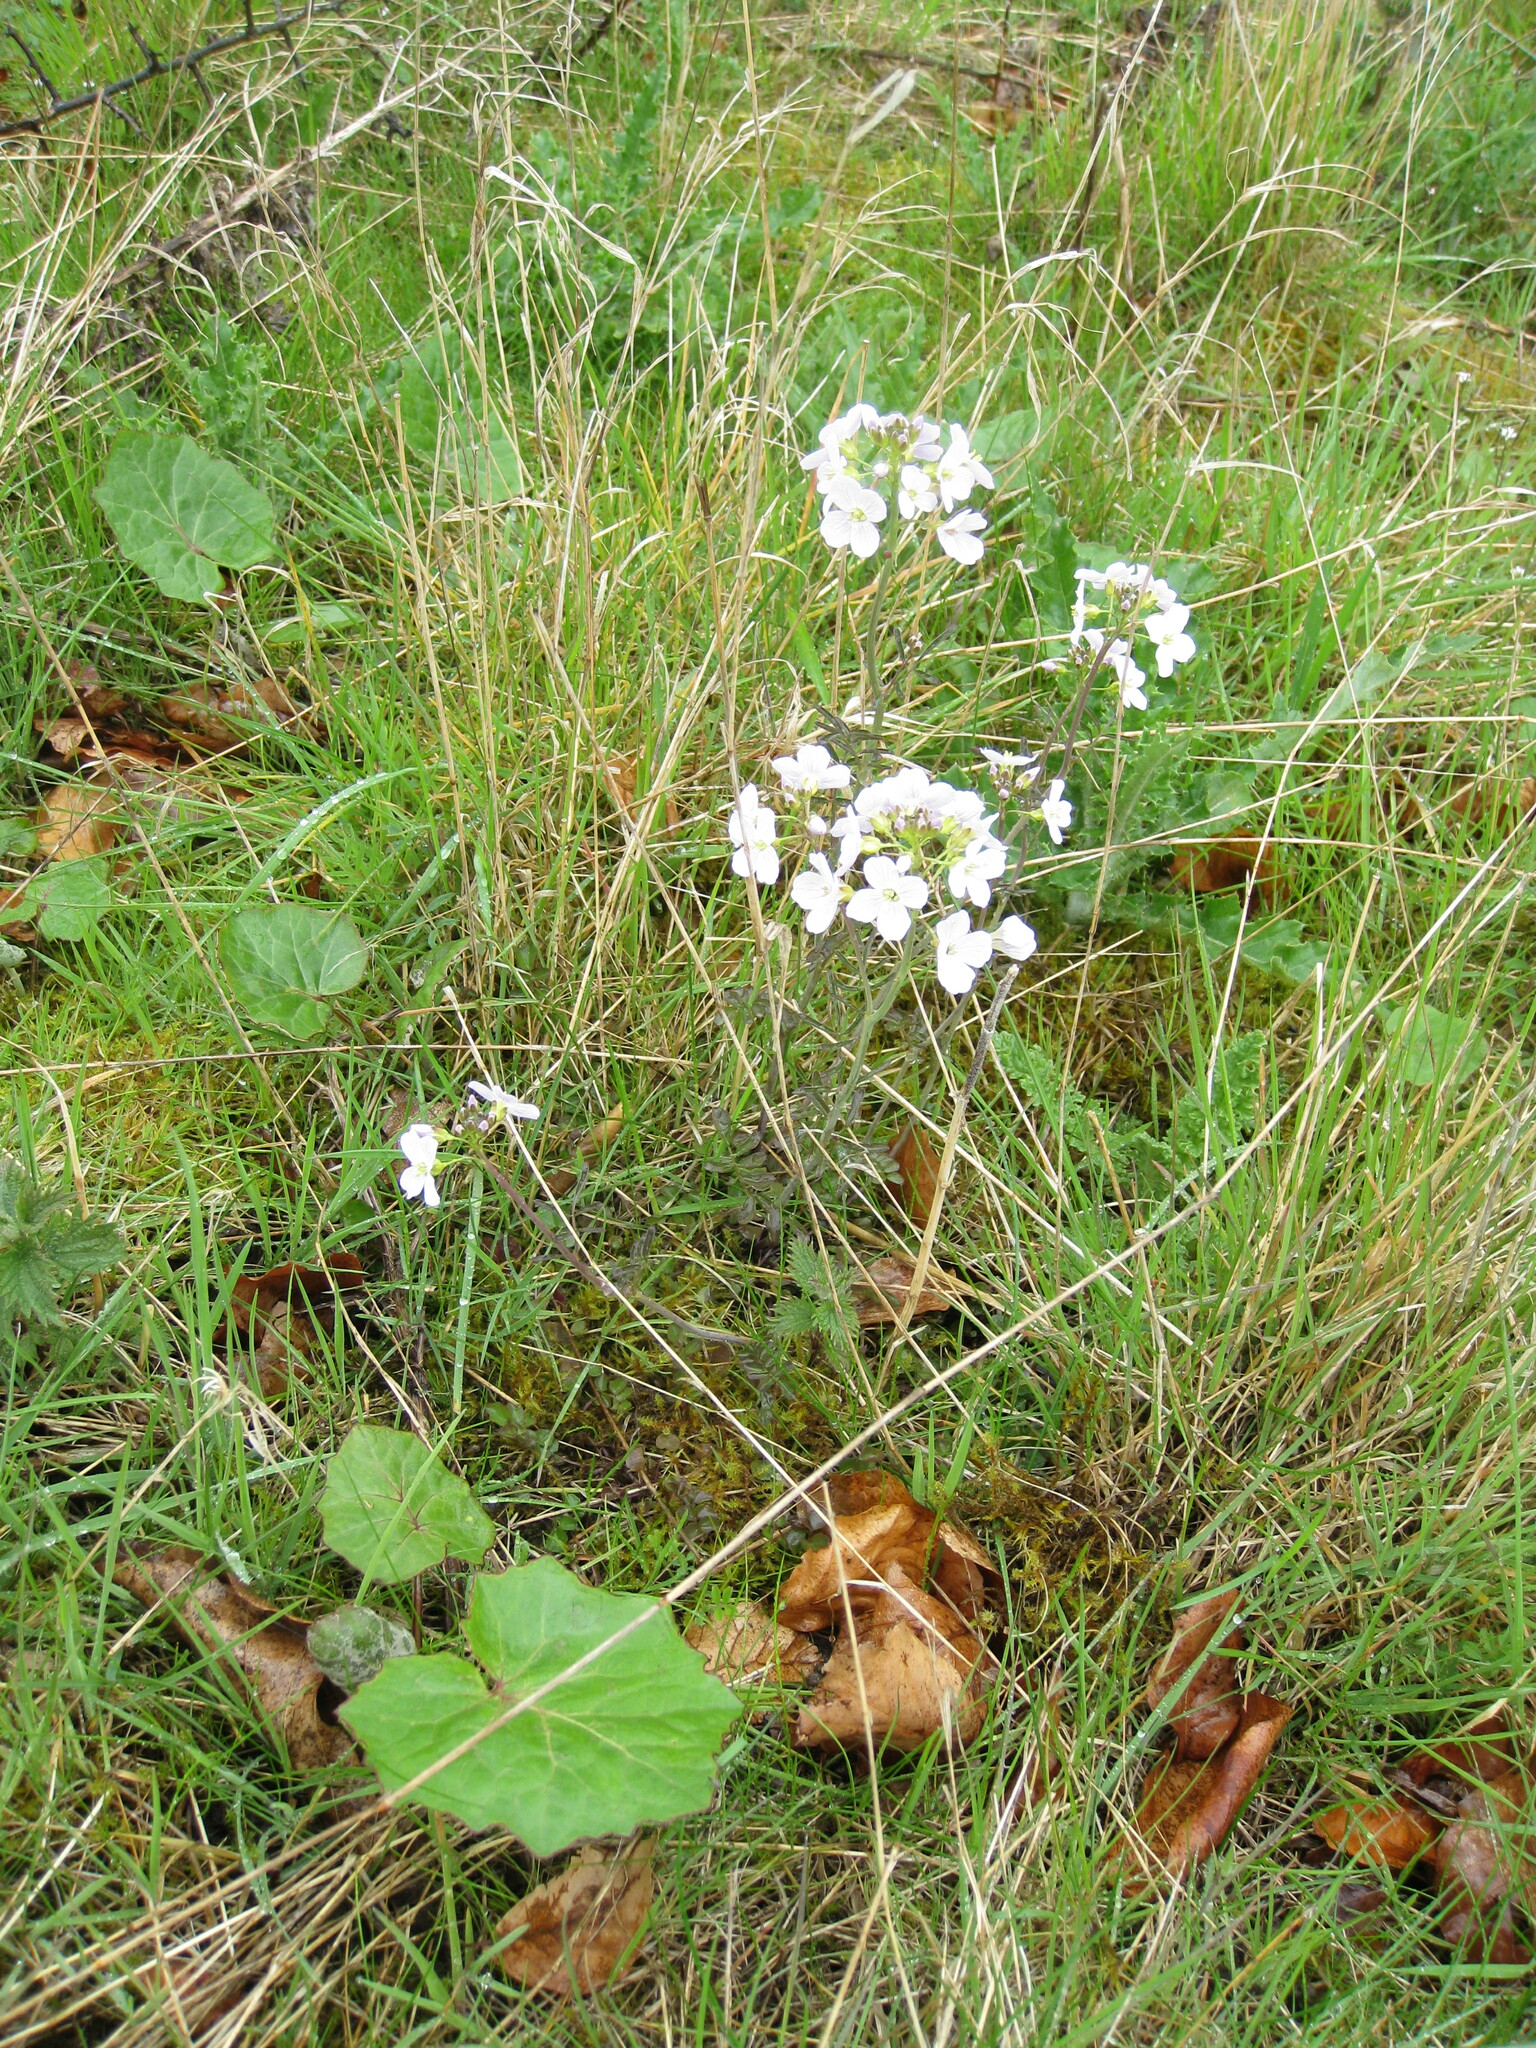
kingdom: Plantae
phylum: Tracheophyta
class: Magnoliopsida
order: Brassicales
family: Brassicaceae
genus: Cardamine
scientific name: Cardamine pratensis
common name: Cuckoo flower
